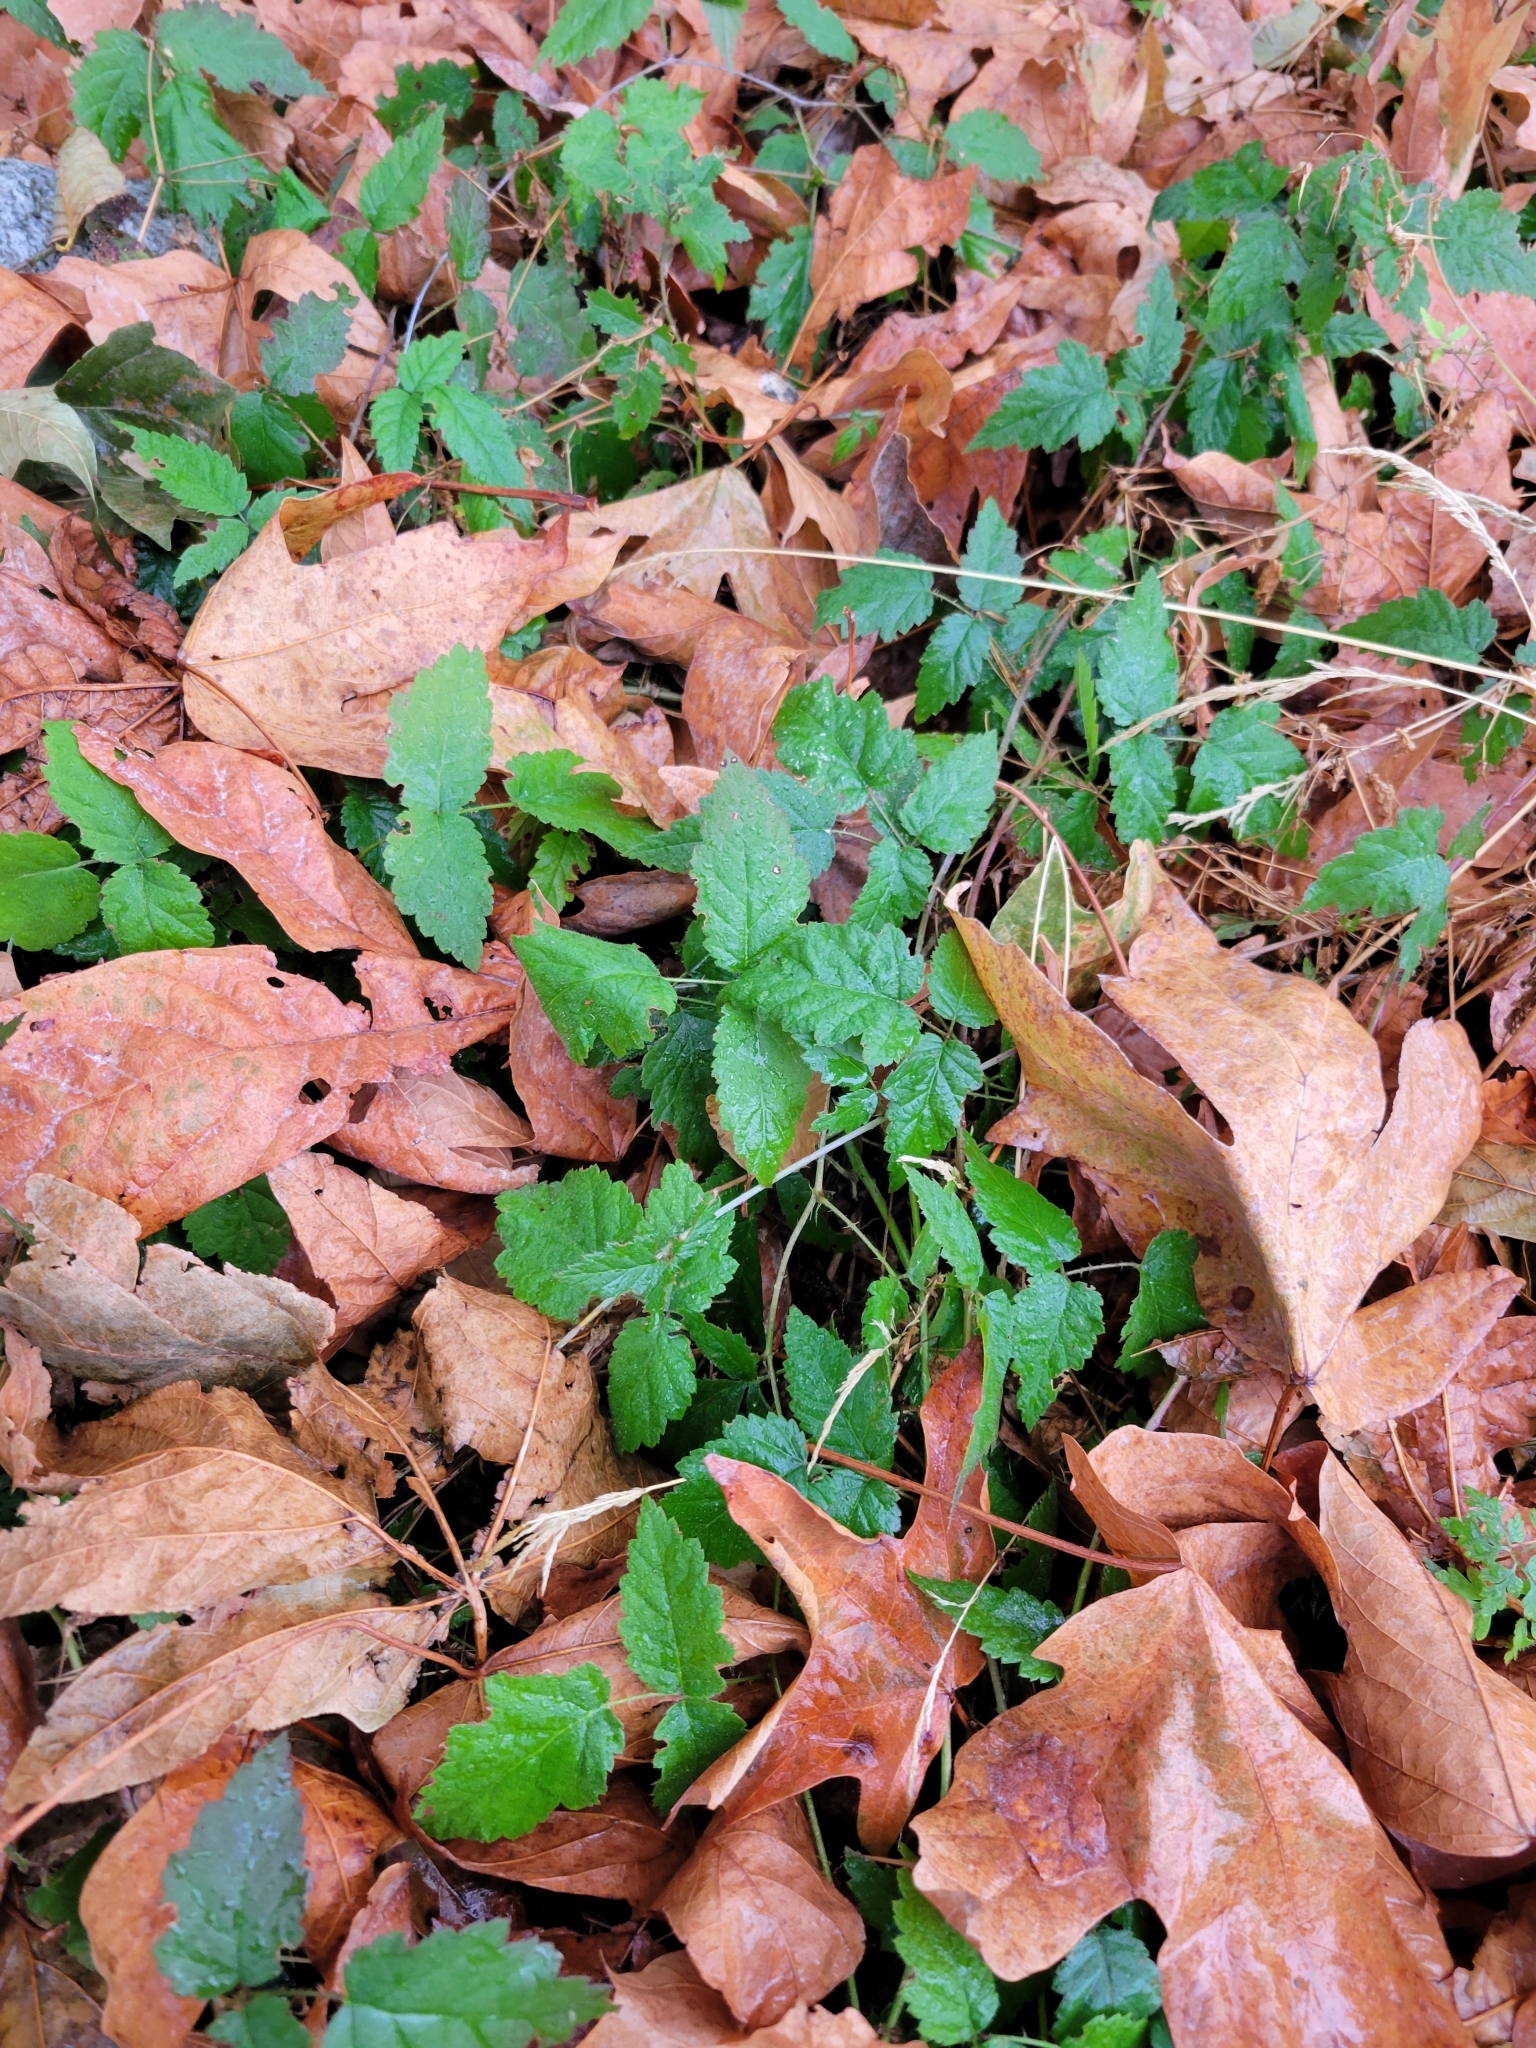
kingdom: Plantae
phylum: Tracheophyta
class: Magnoliopsida
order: Rosales
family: Rosaceae
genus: Rubus
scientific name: Rubus ursinus
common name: Pacific blackberry
